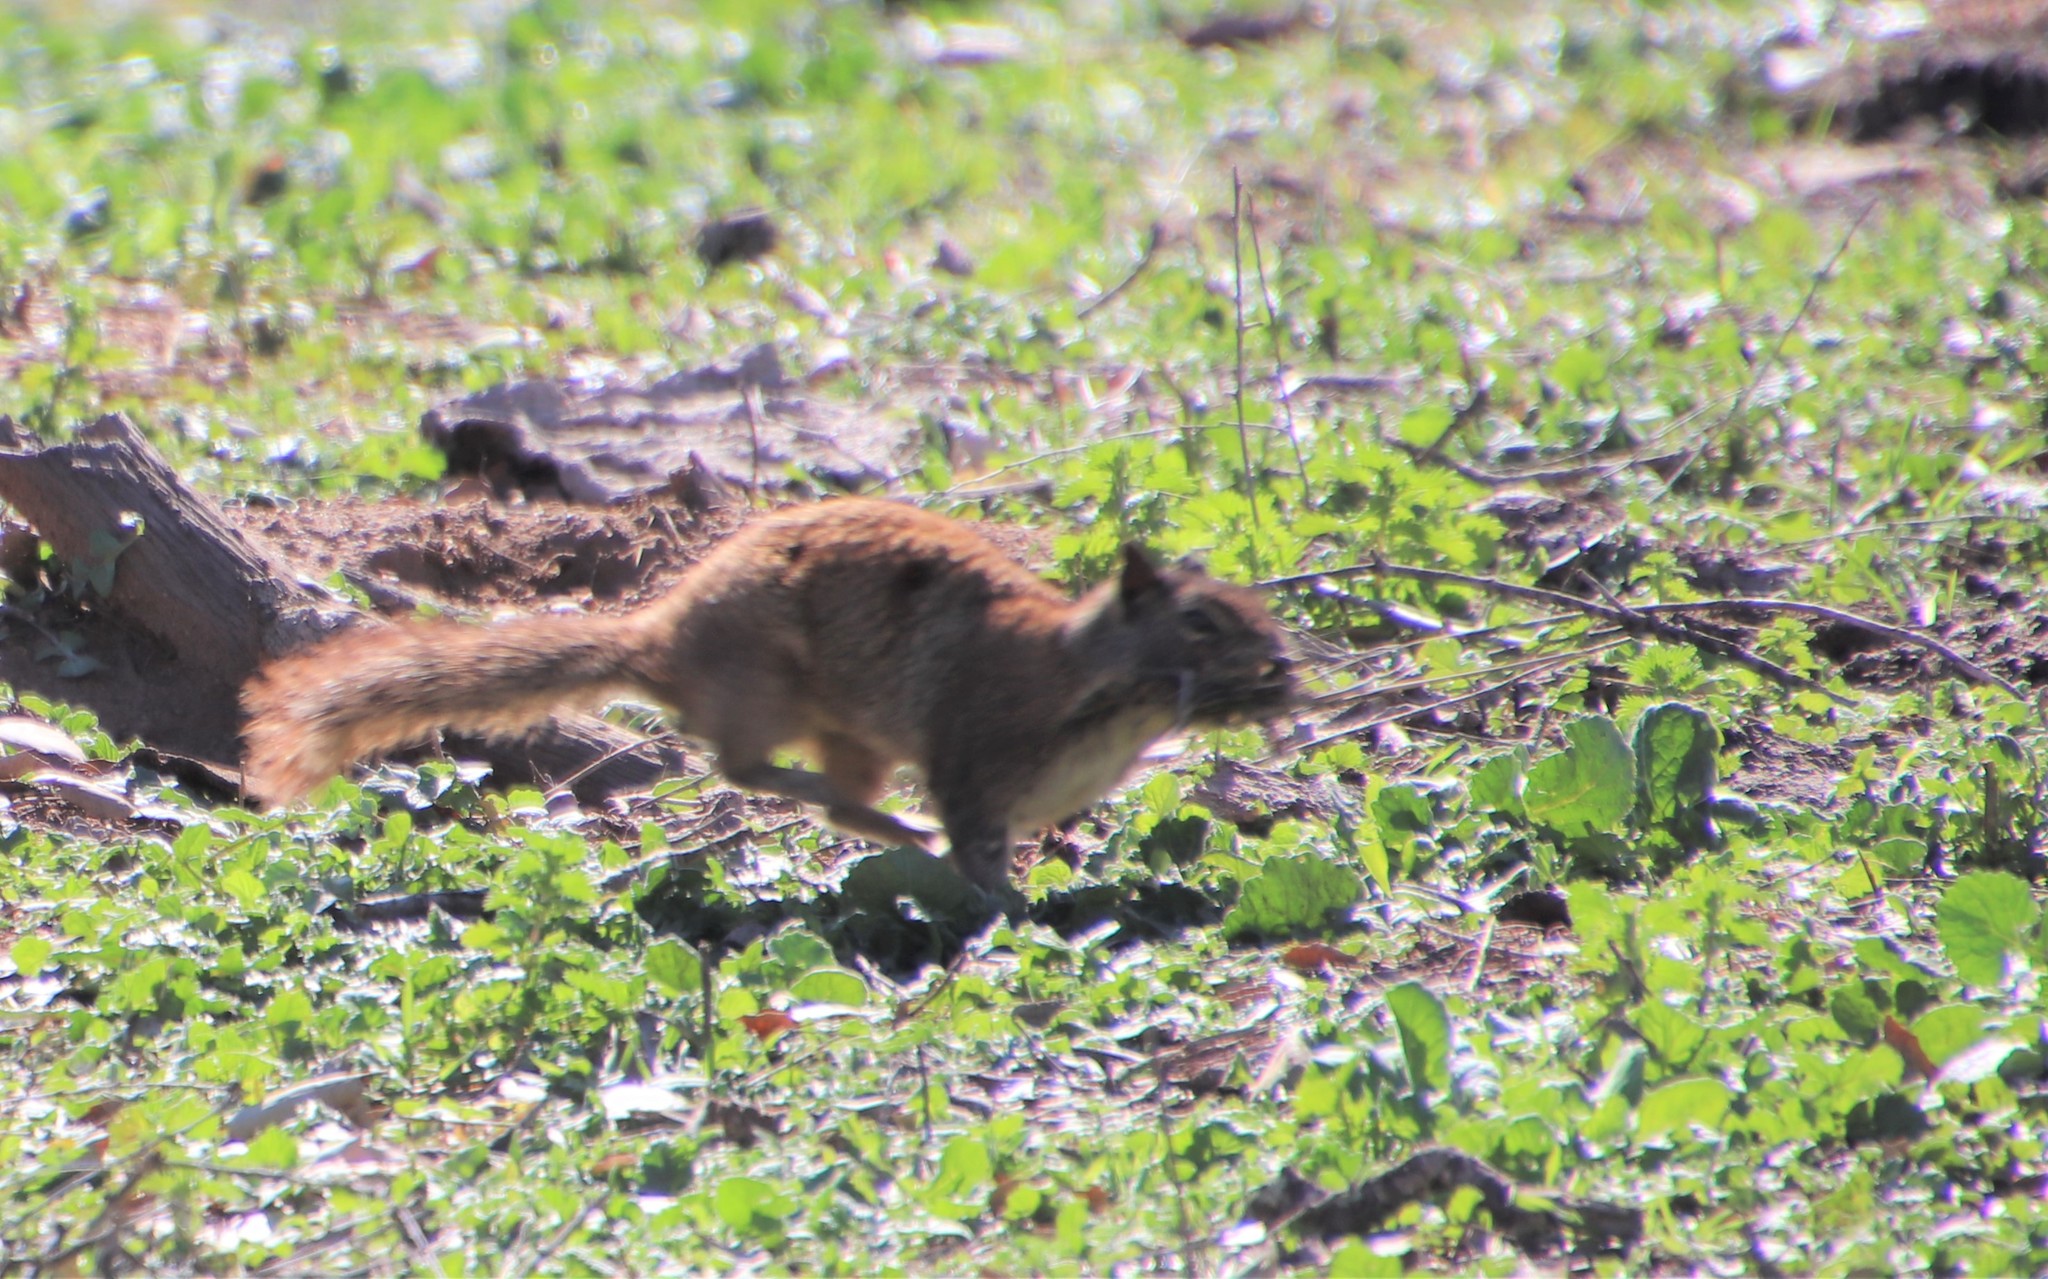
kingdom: Animalia
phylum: Chordata
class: Mammalia
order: Rodentia
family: Sciuridae
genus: Otospermophilus
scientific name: Otospermophilus beecheyi
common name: California ground squirrel
